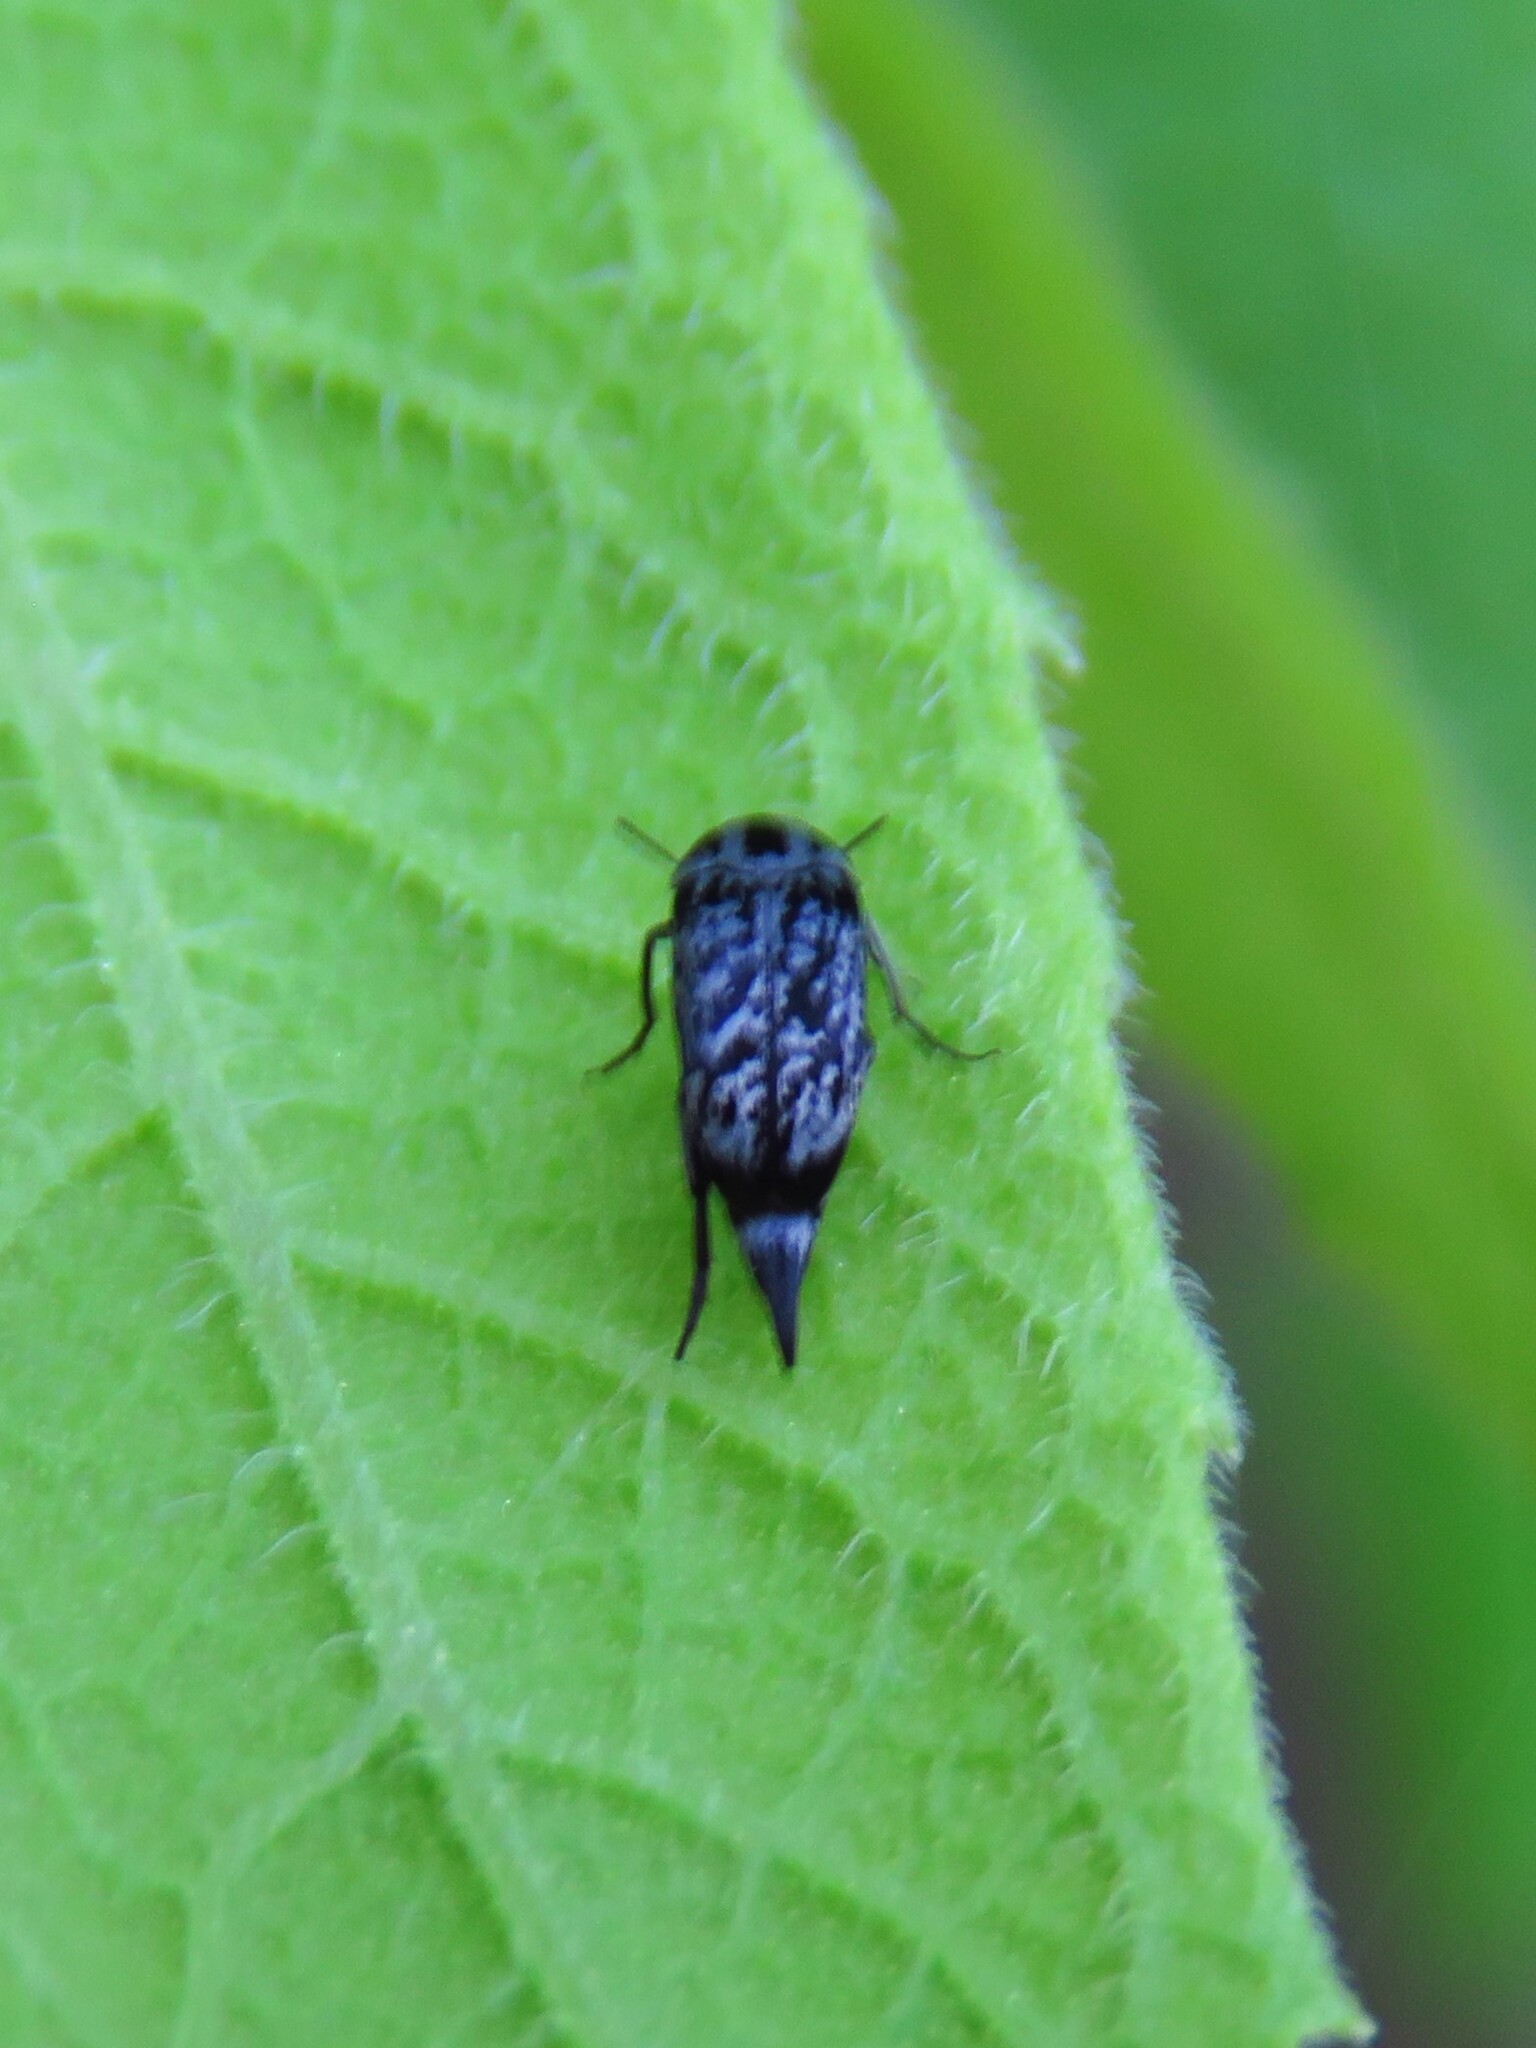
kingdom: Animalia
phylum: Arthropoda
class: Insecta
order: Coleoptera
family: Mordellidae
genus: Mordella
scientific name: Mordella marginata
